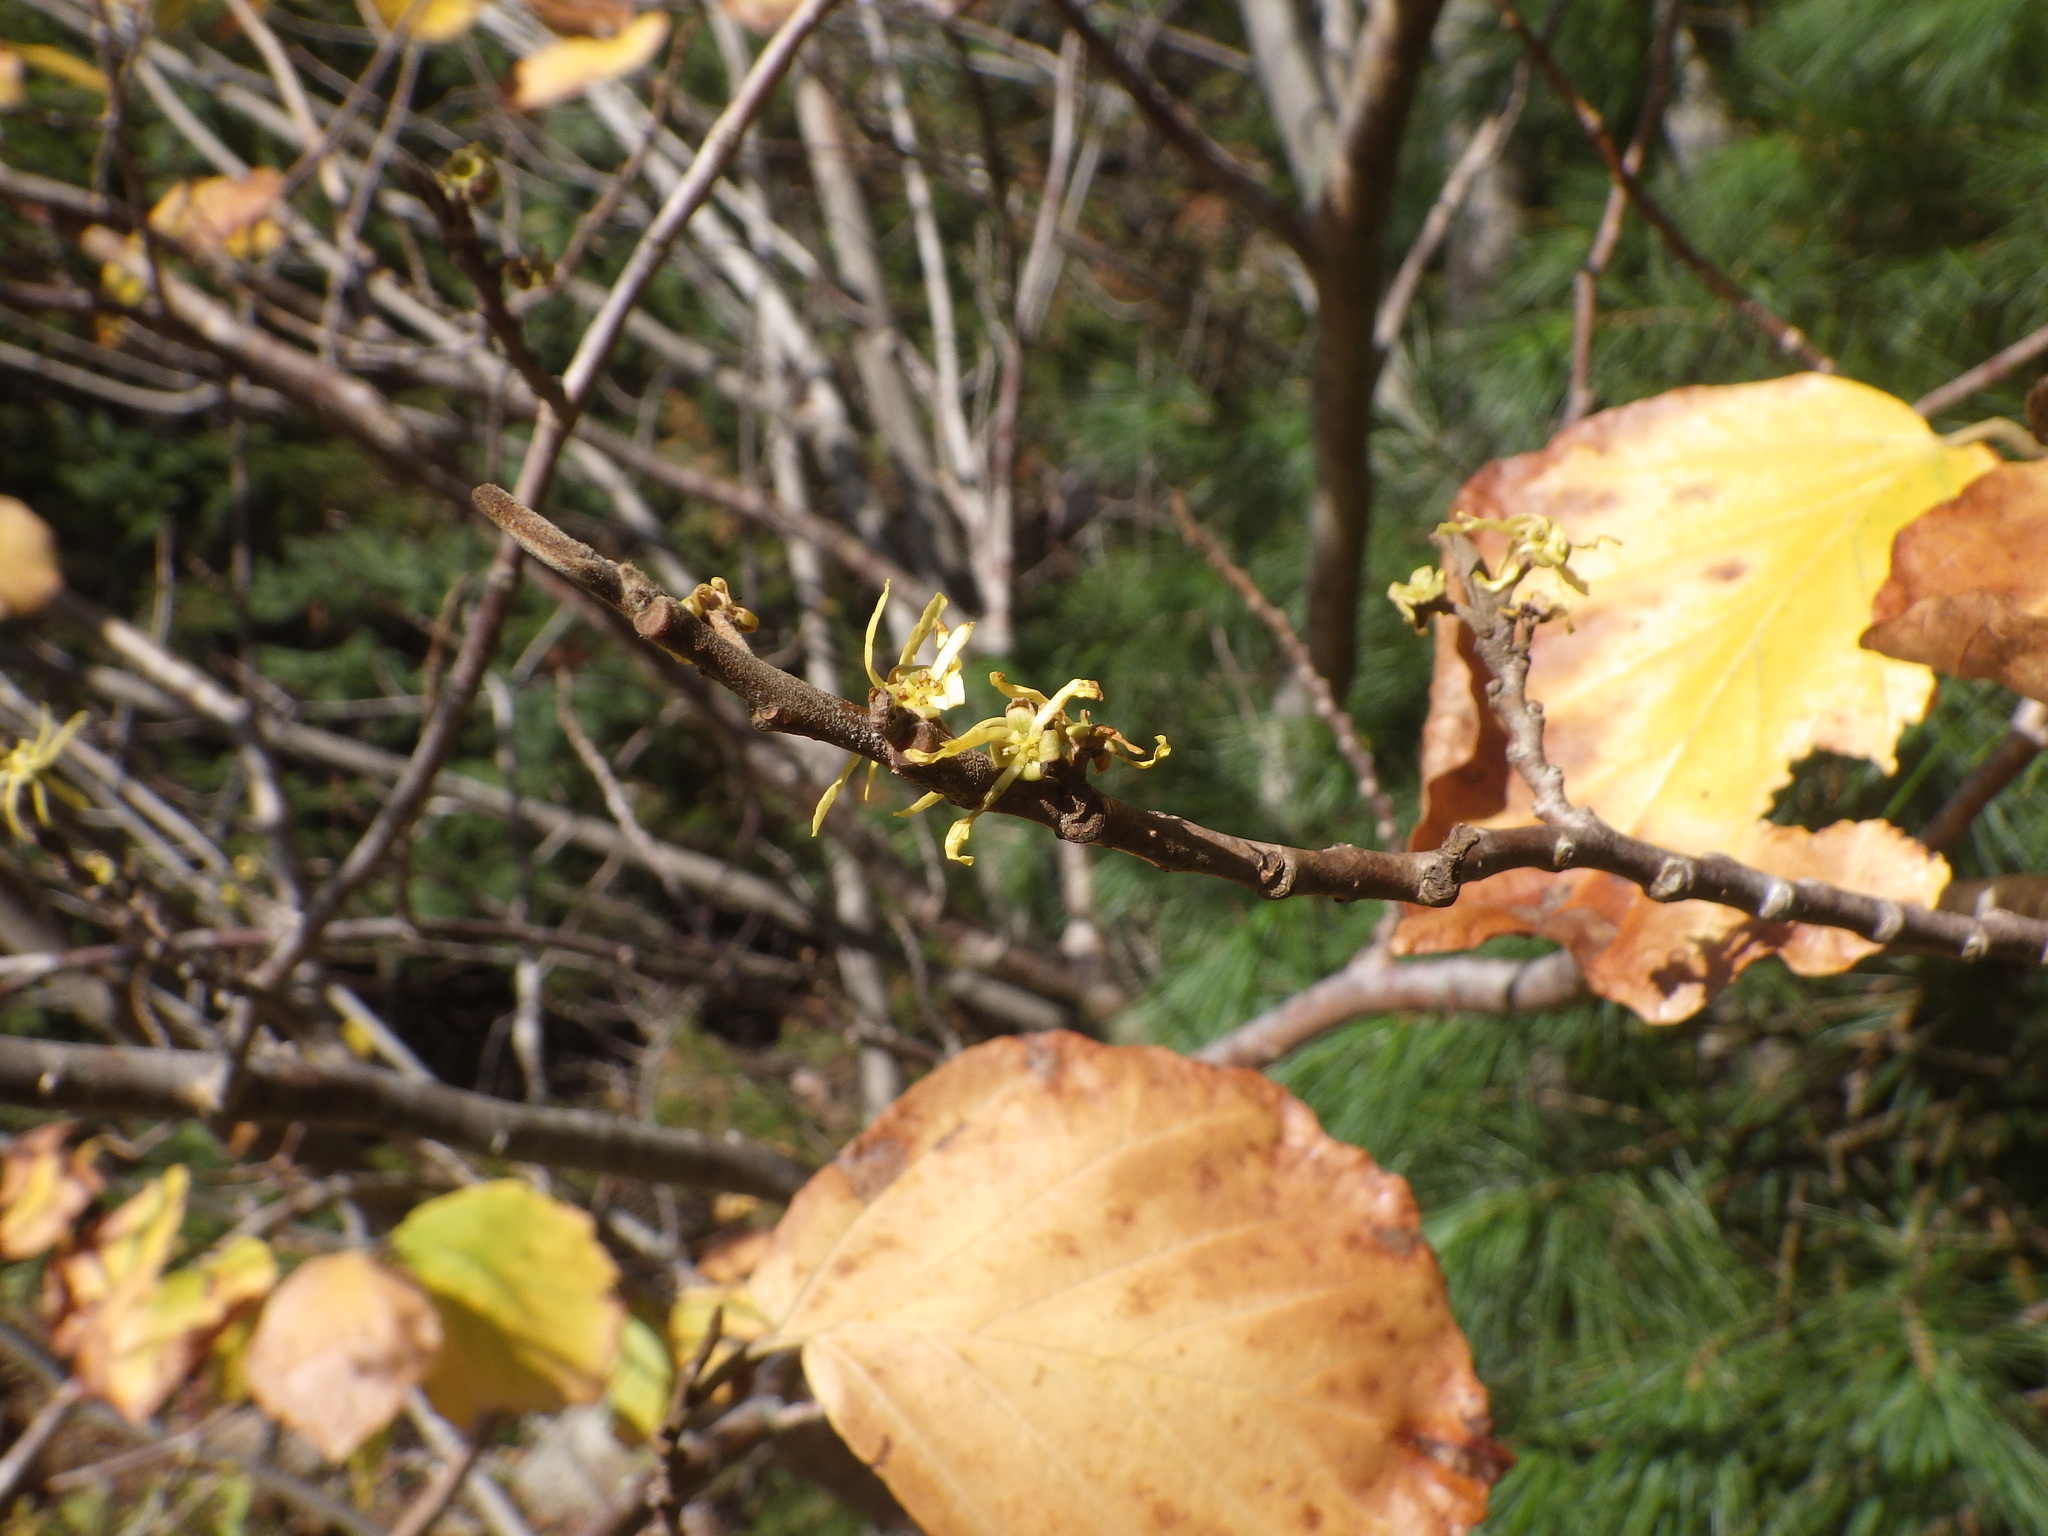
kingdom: Plantae
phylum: Tracheophyta
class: Magnoliopsida
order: Saxifragales
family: Hamamelidaceae
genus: Hamamelis
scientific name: Hamamelis virginiana
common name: Witch-hazel
